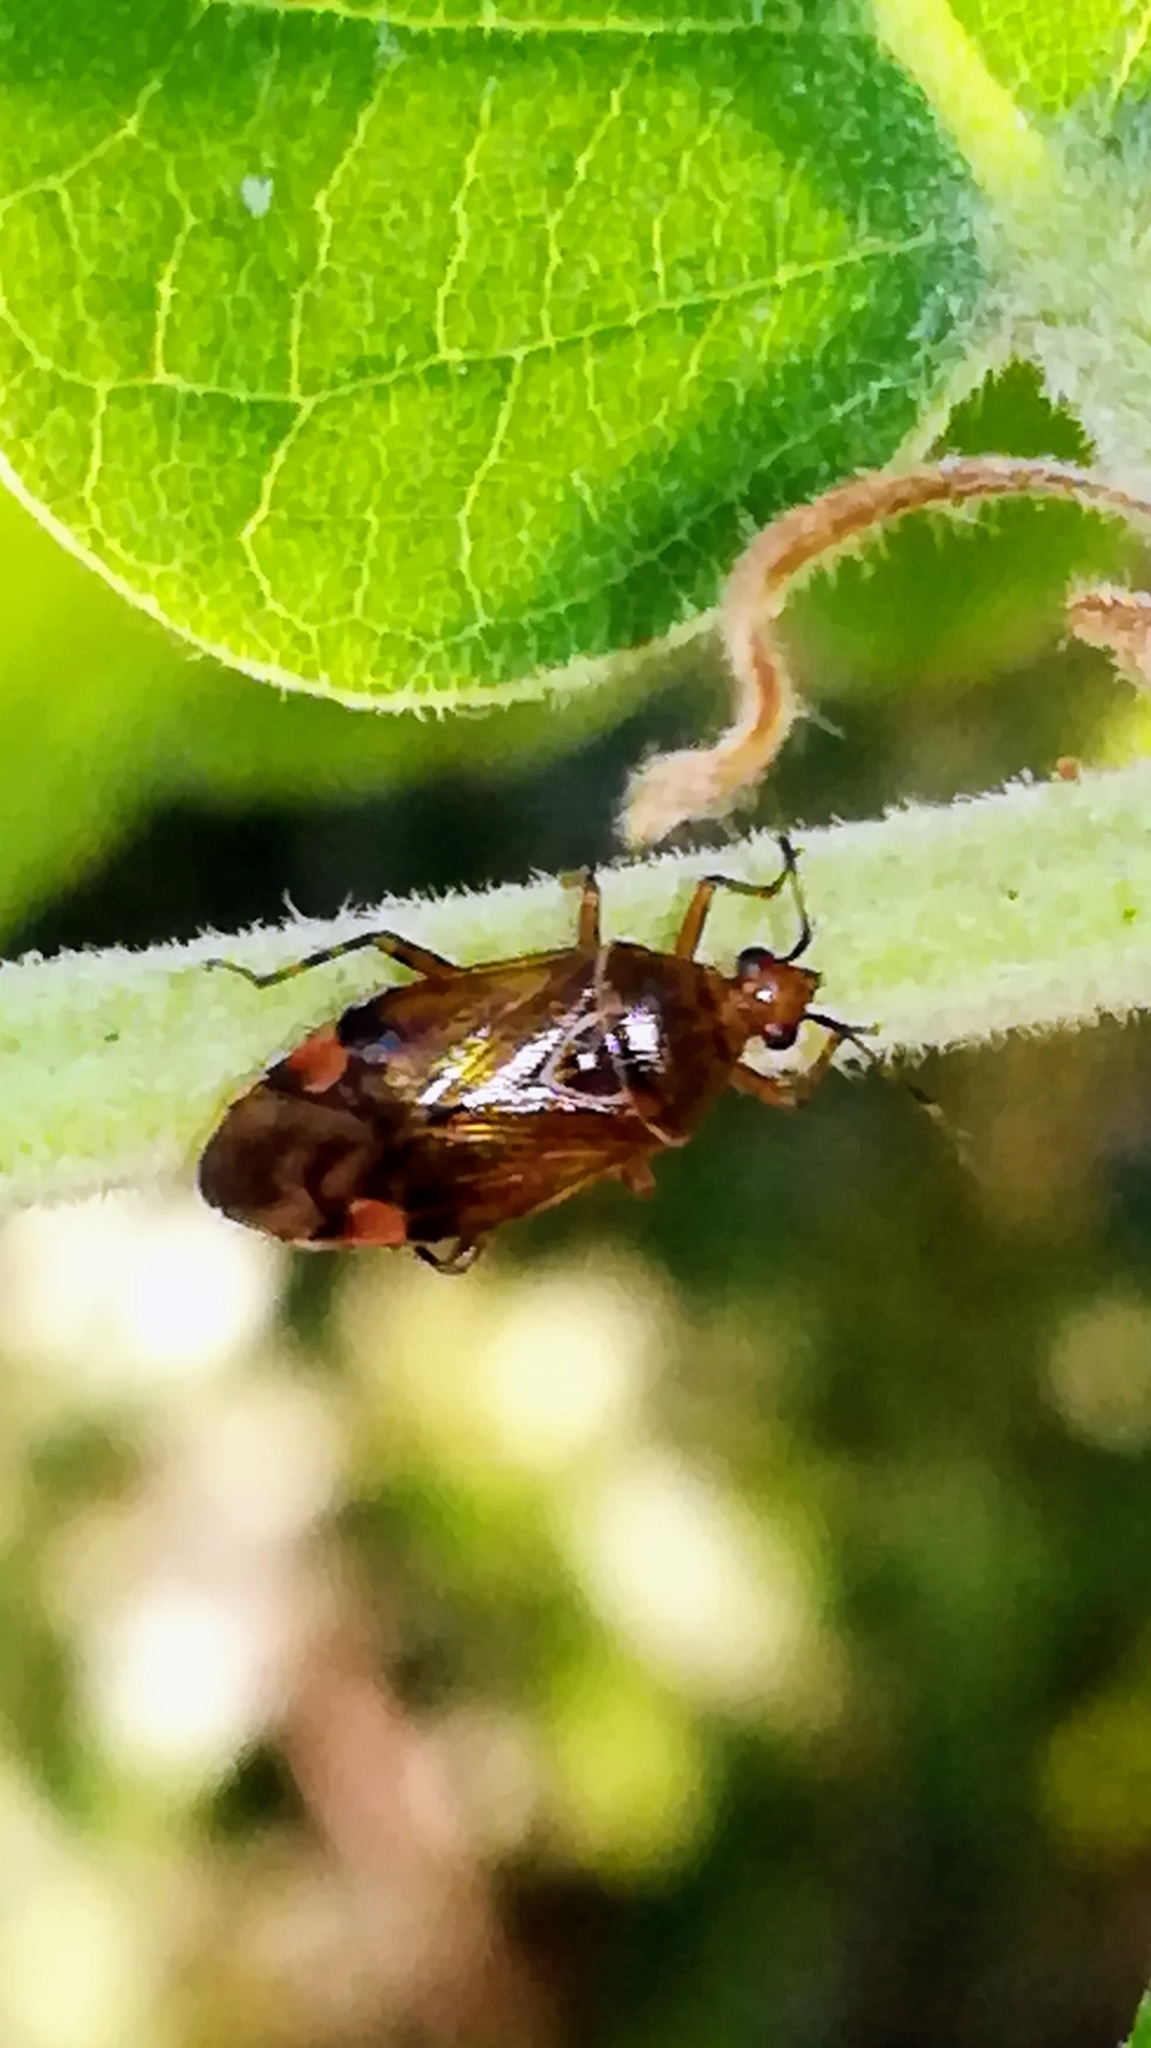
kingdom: Animalia
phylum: Arthropoda
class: Insecta
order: Hemiptera
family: Miridae
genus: Deraeocoris
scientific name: Deraeocoris flavilinea
